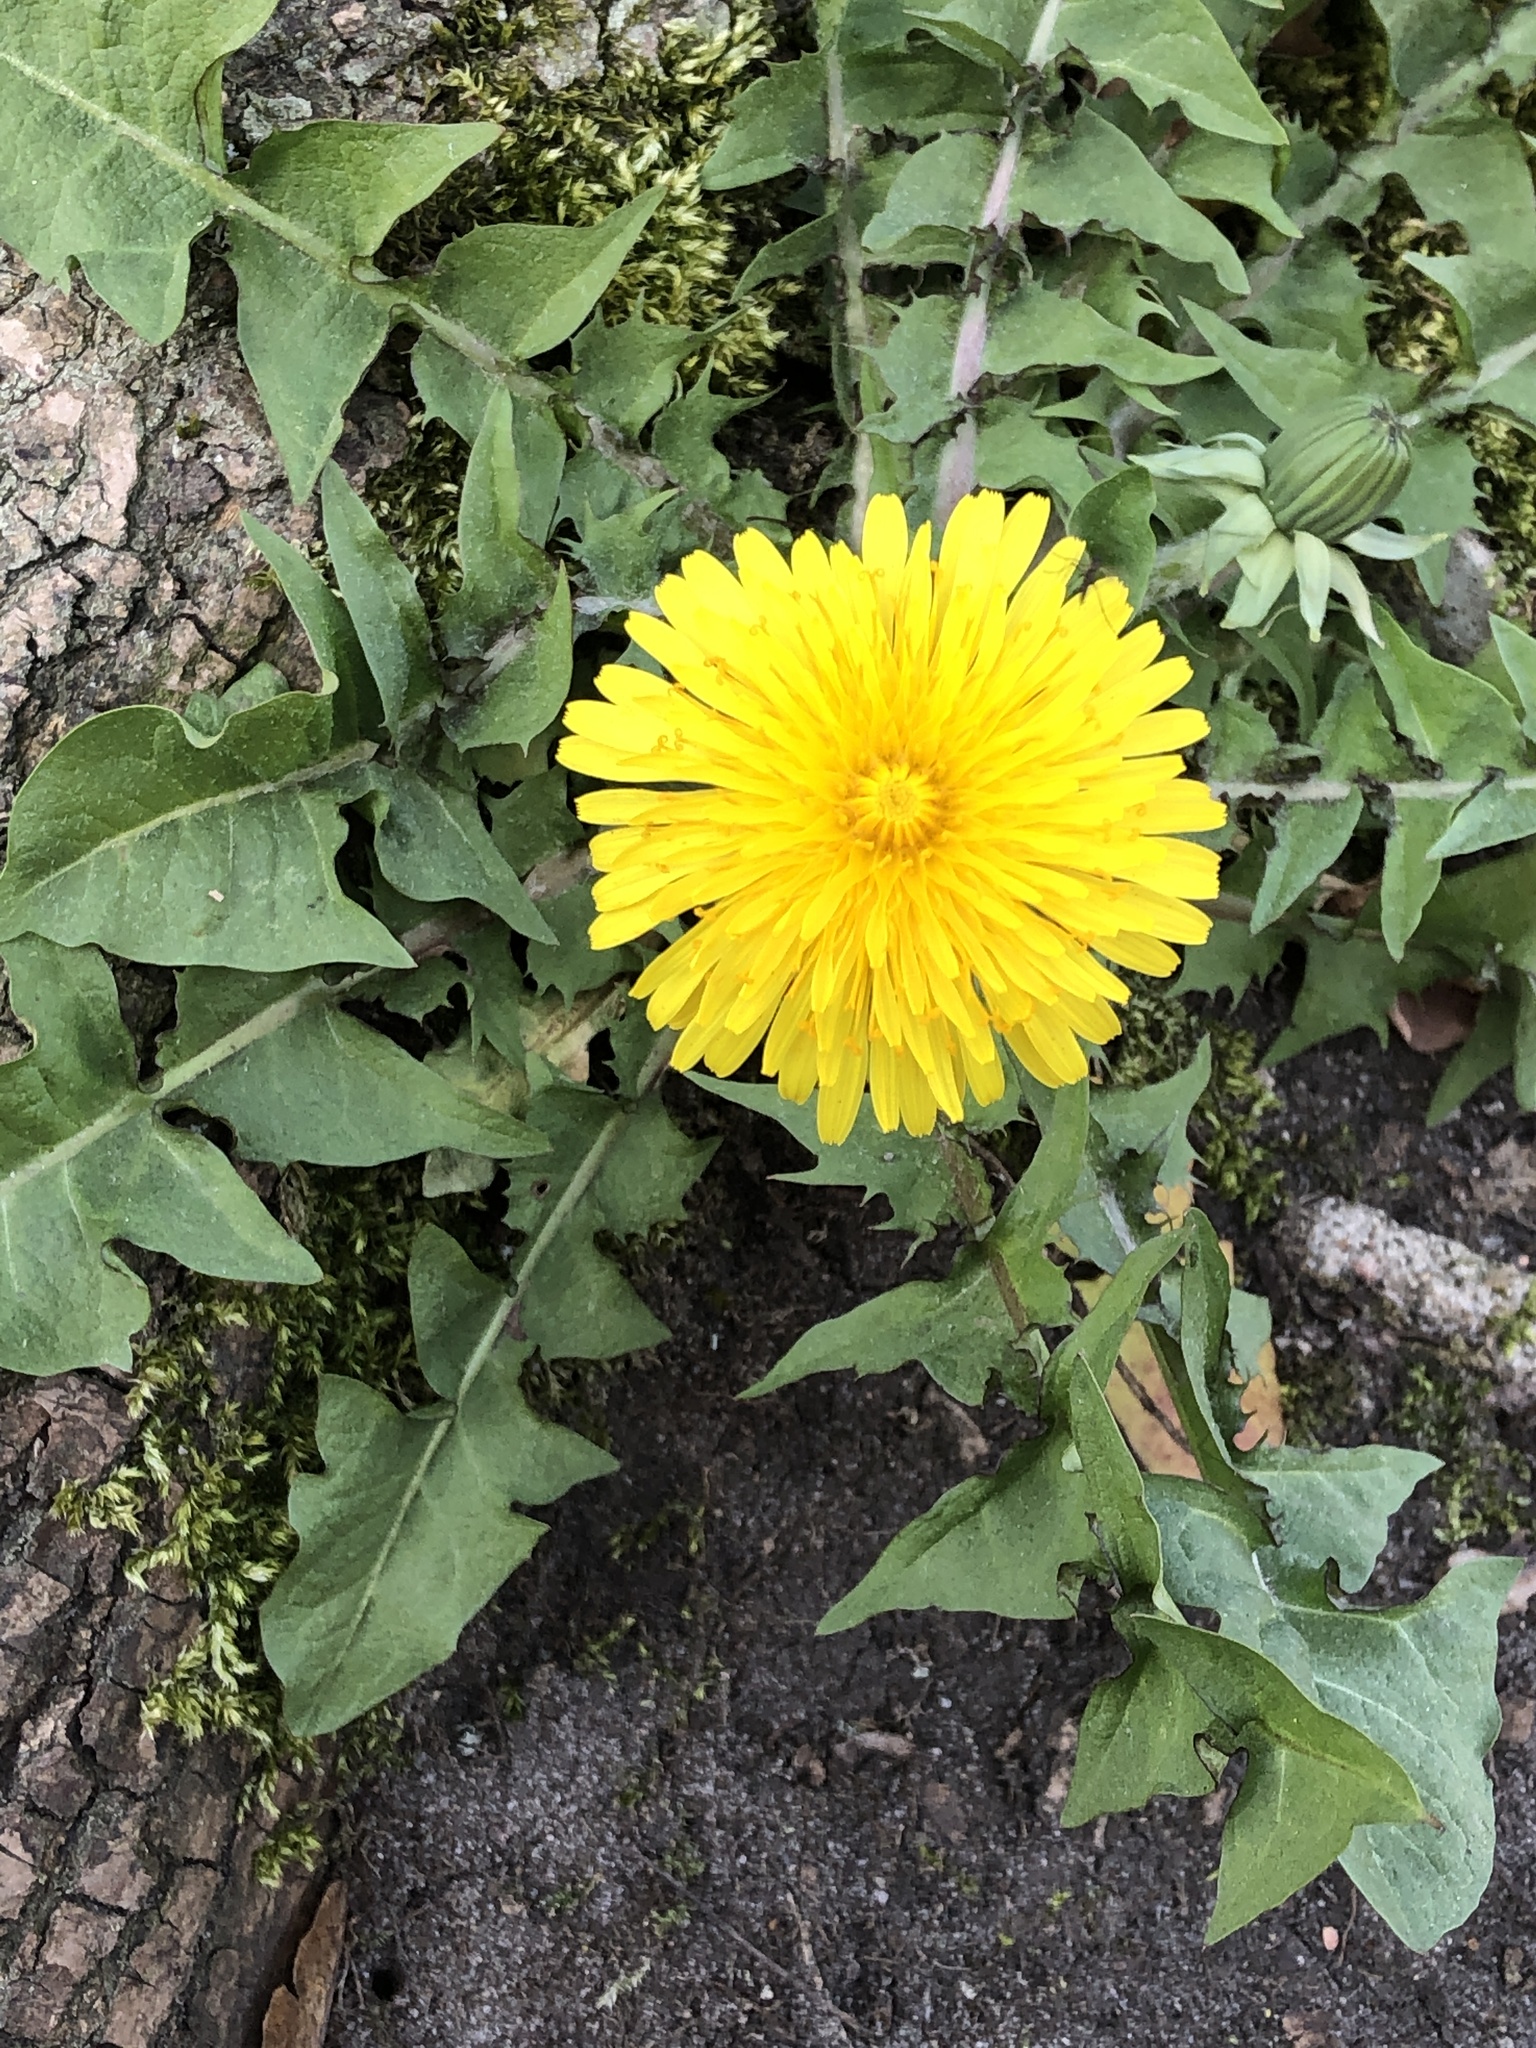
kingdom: Plantae
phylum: Tracheophyta
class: Magnoliopsida
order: Asterales
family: Asteraceae
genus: Taraxacum
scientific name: Taraxacum officinale
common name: Common dandelion
